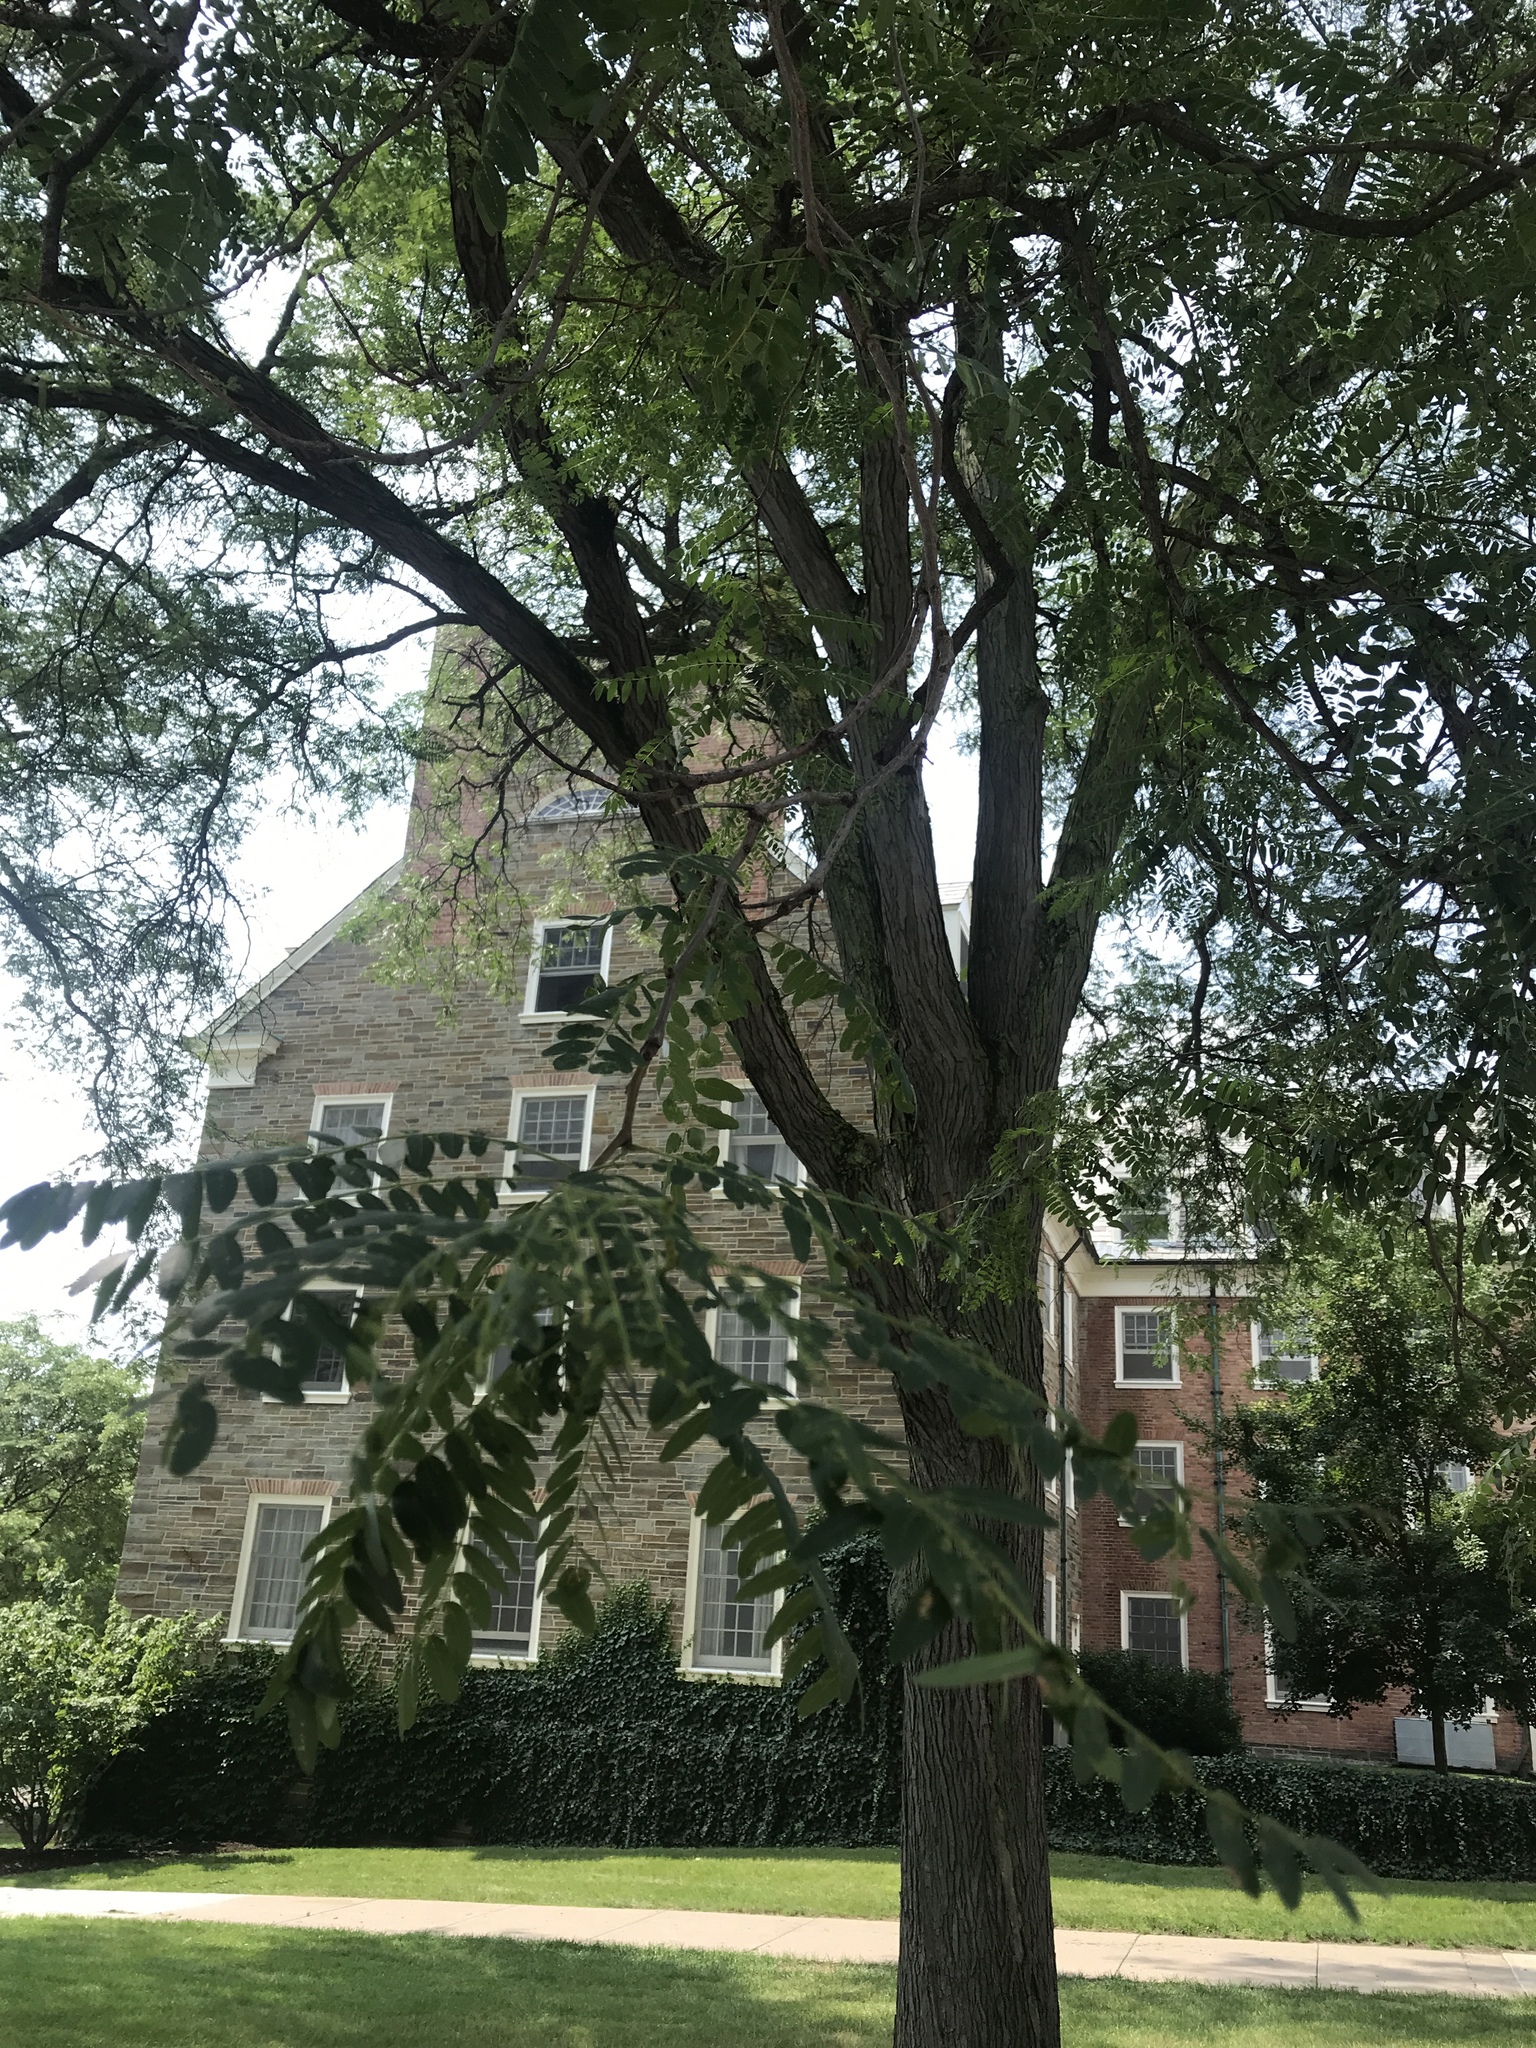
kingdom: Plantae
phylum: Tracheophyta
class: Magnoliopsida
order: Fabales
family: Fabaceae
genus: Gleditsia
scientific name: Gleditsia triacanthos
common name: Common honeylocust
